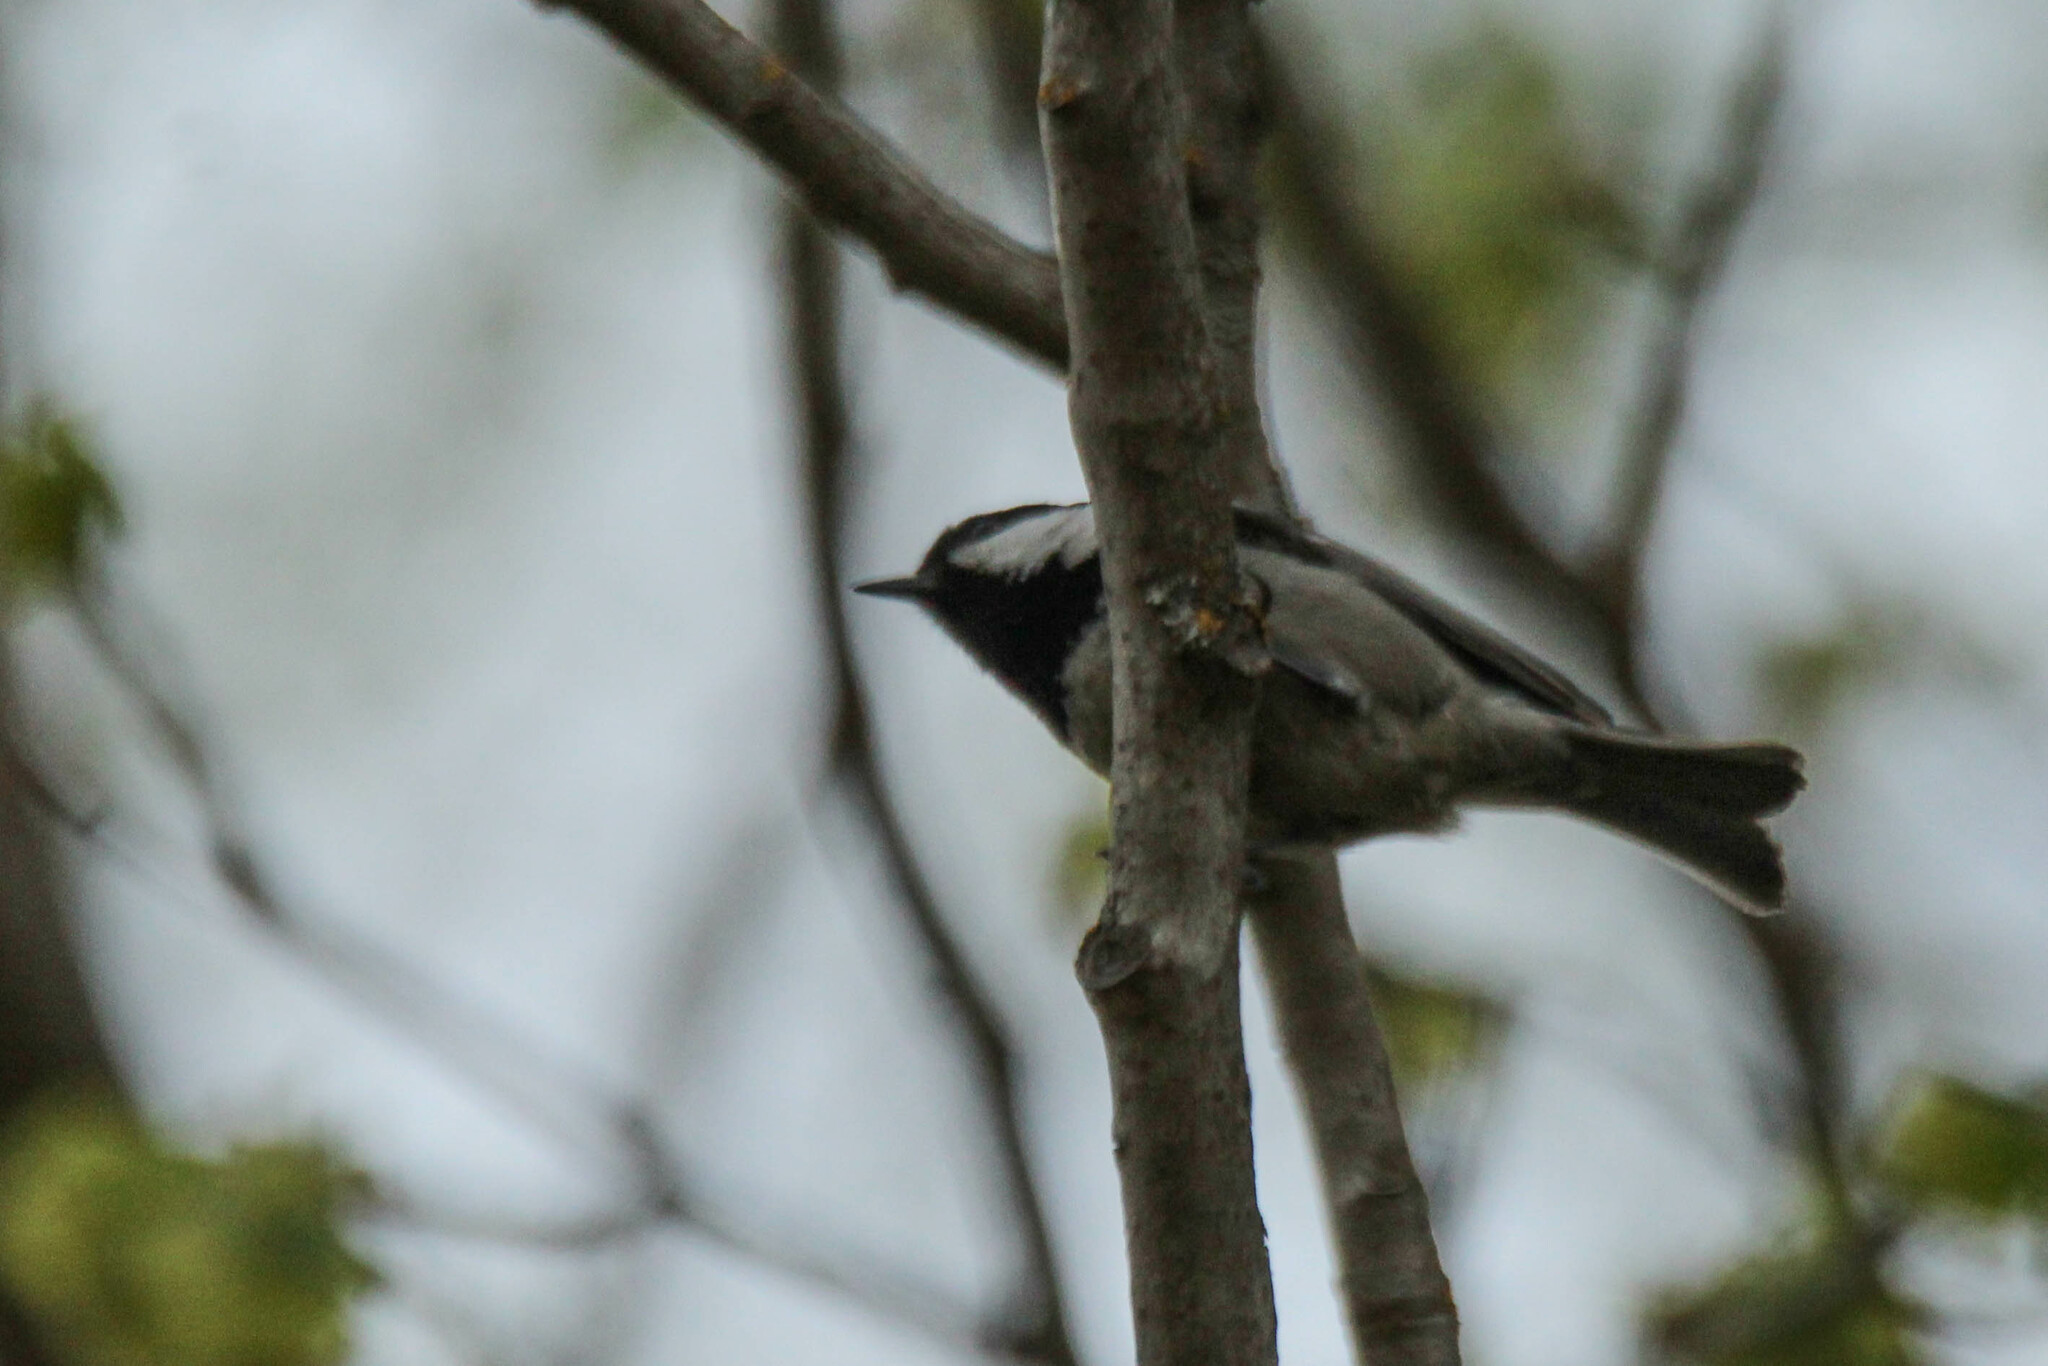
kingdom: Animalia
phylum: Chordata
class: Aves
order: Passeriformes
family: Paridae
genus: Periparus
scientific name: Periparus ater
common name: Coal tit
